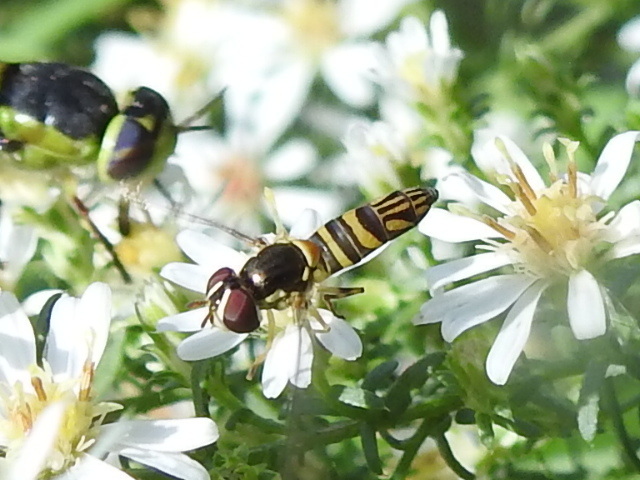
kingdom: Animalia
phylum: Arthropoda
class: Insecta
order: Diptera
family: Syrphidae
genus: Allograpta
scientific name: Allograpta obliqua
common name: Common oblique syrphid
